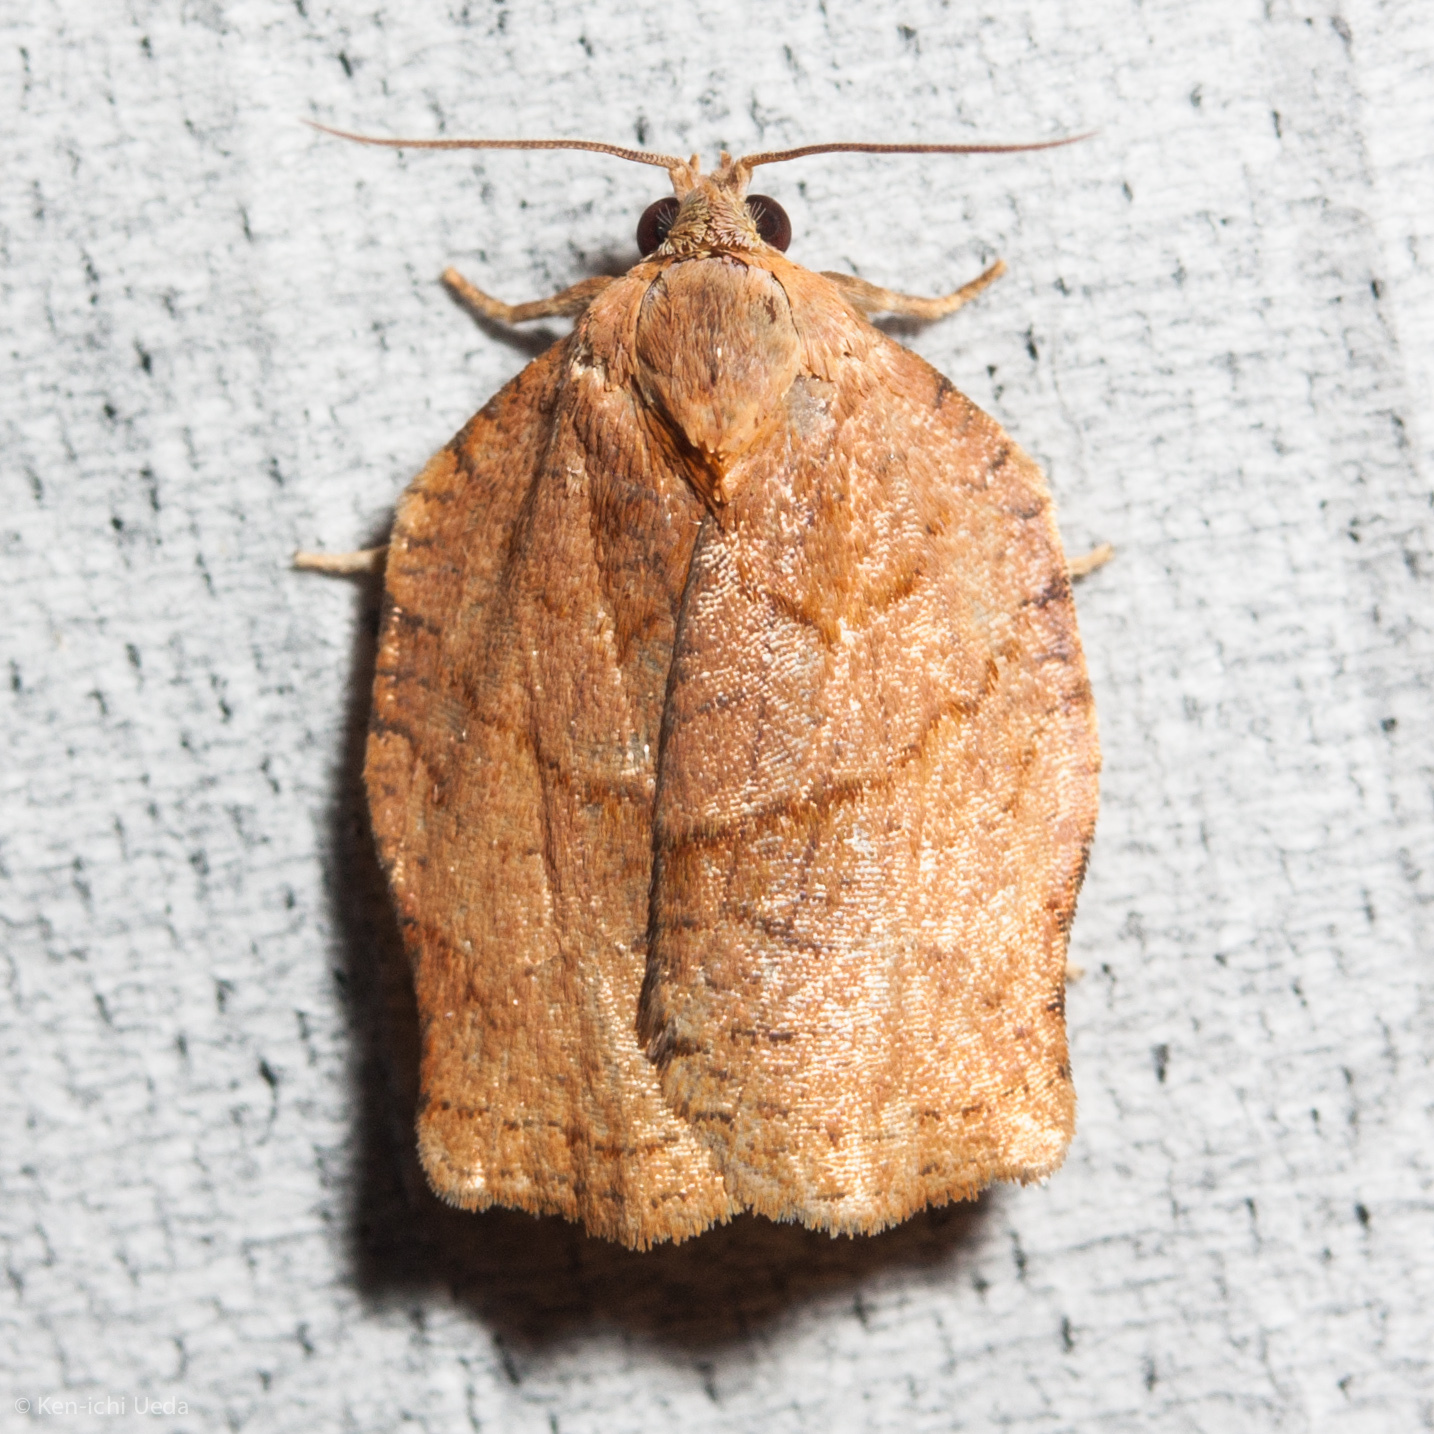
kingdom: Animalia
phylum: Arthropoda
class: Insecta
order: Lepidoptera
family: Tortricidae
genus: Archips
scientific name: Archips purpurana
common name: Omnivorous leafroller
